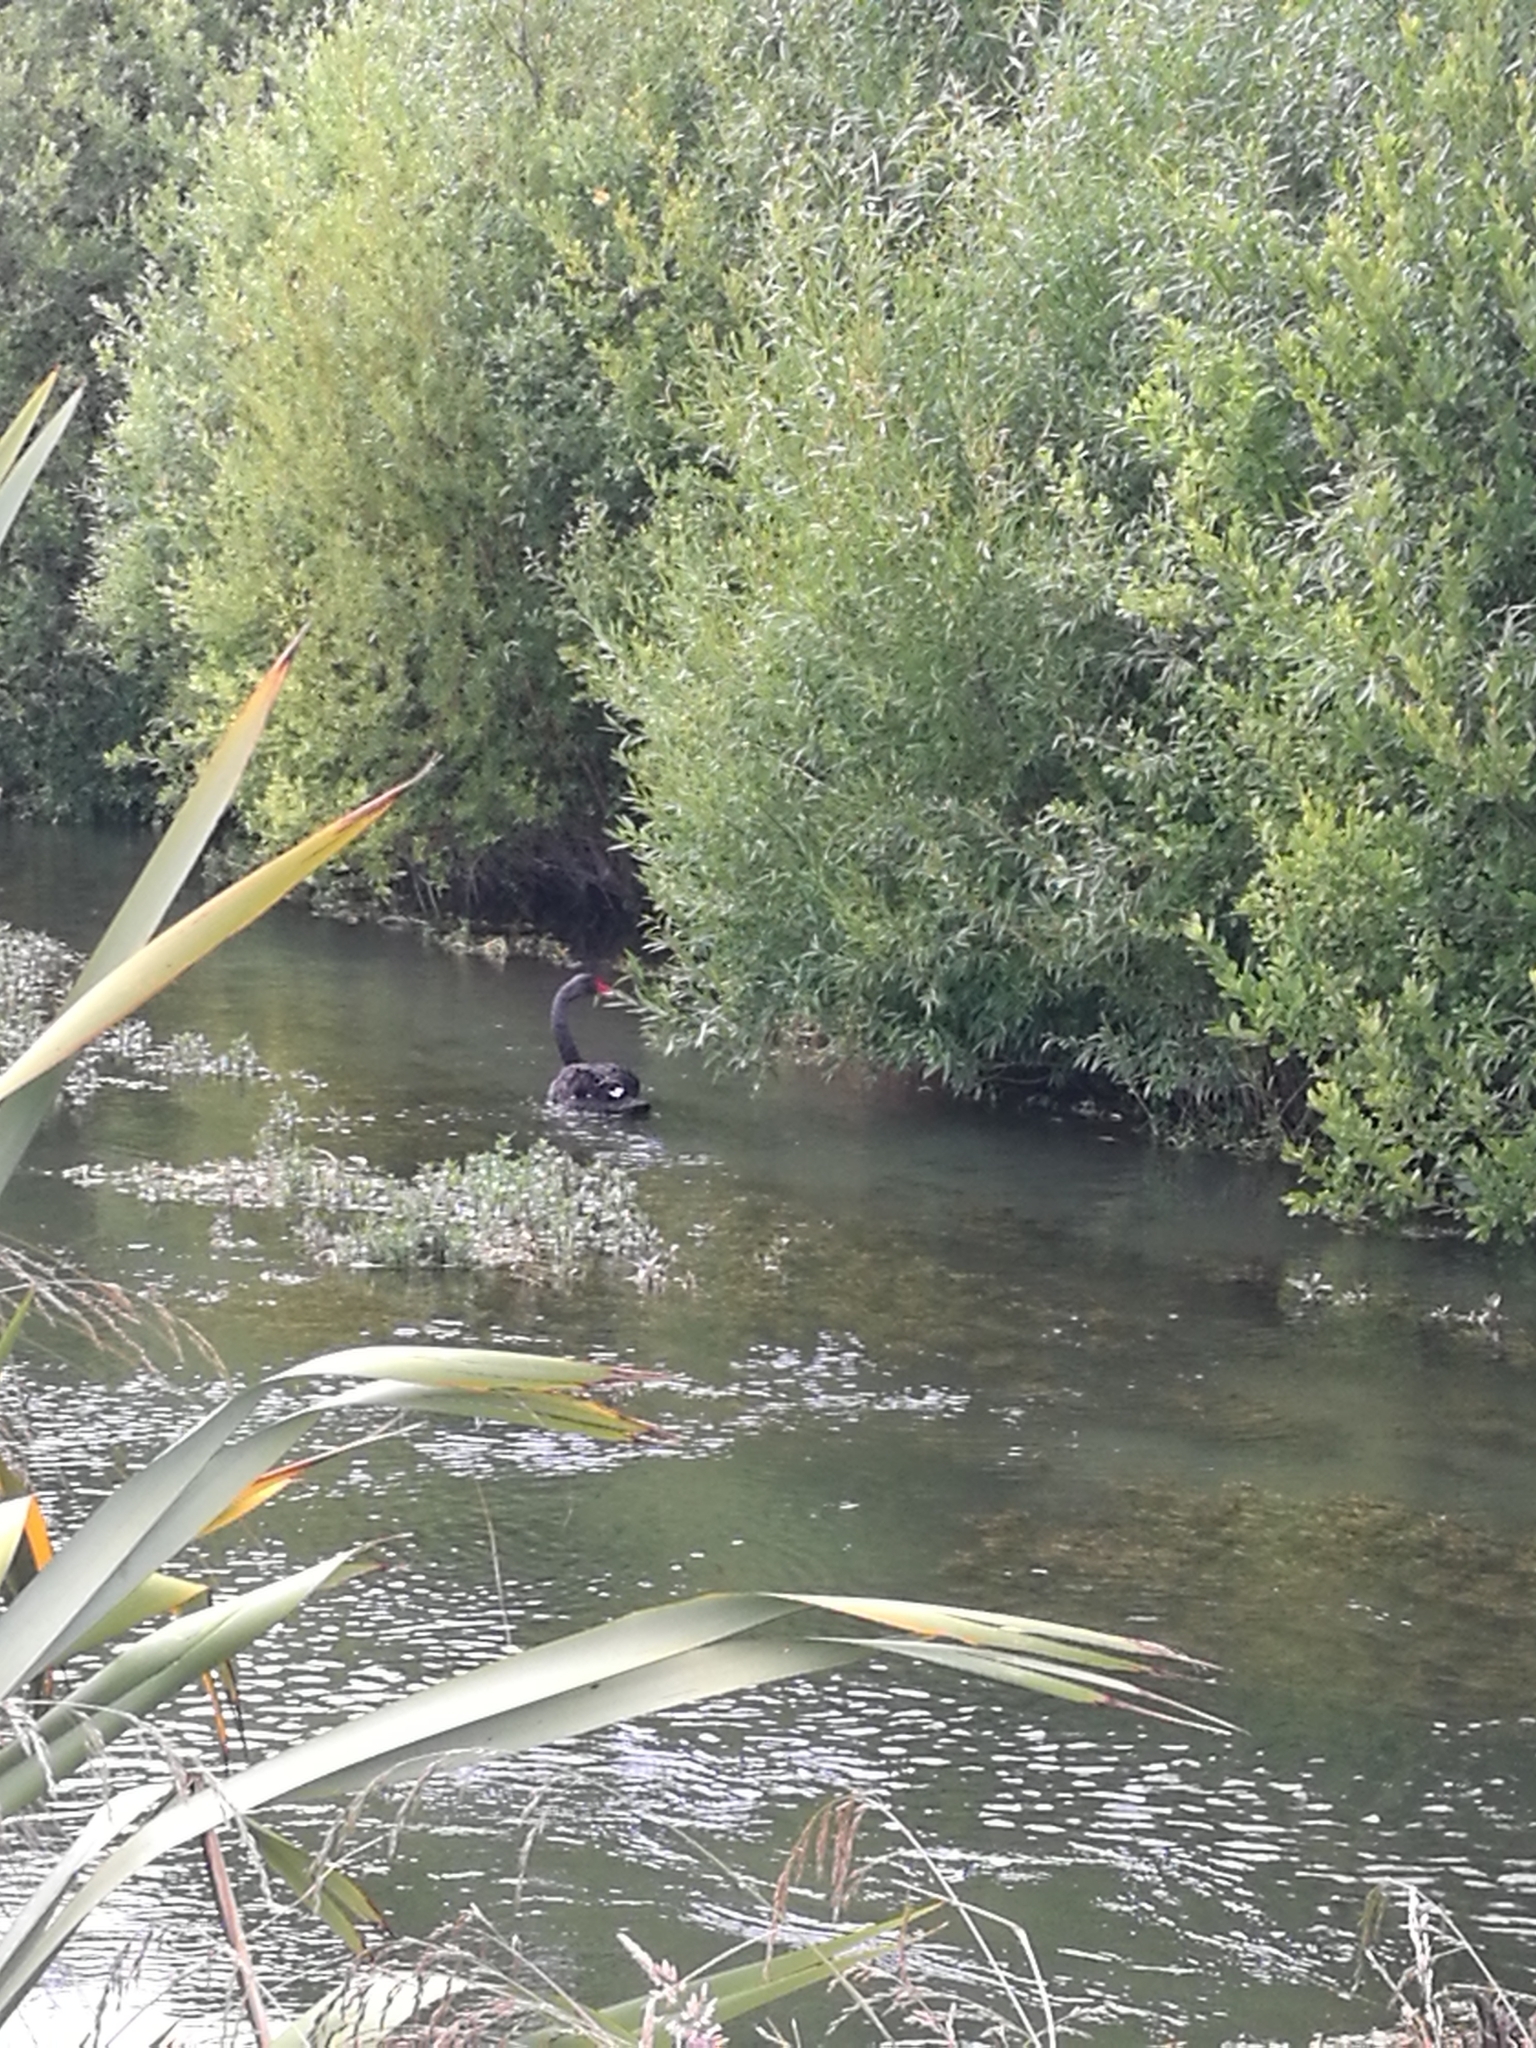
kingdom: Animalia
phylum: Chordata
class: Aves
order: Anseriformes
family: Anatidae
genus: Cygnus
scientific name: Cygnus atratus
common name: Black swan
